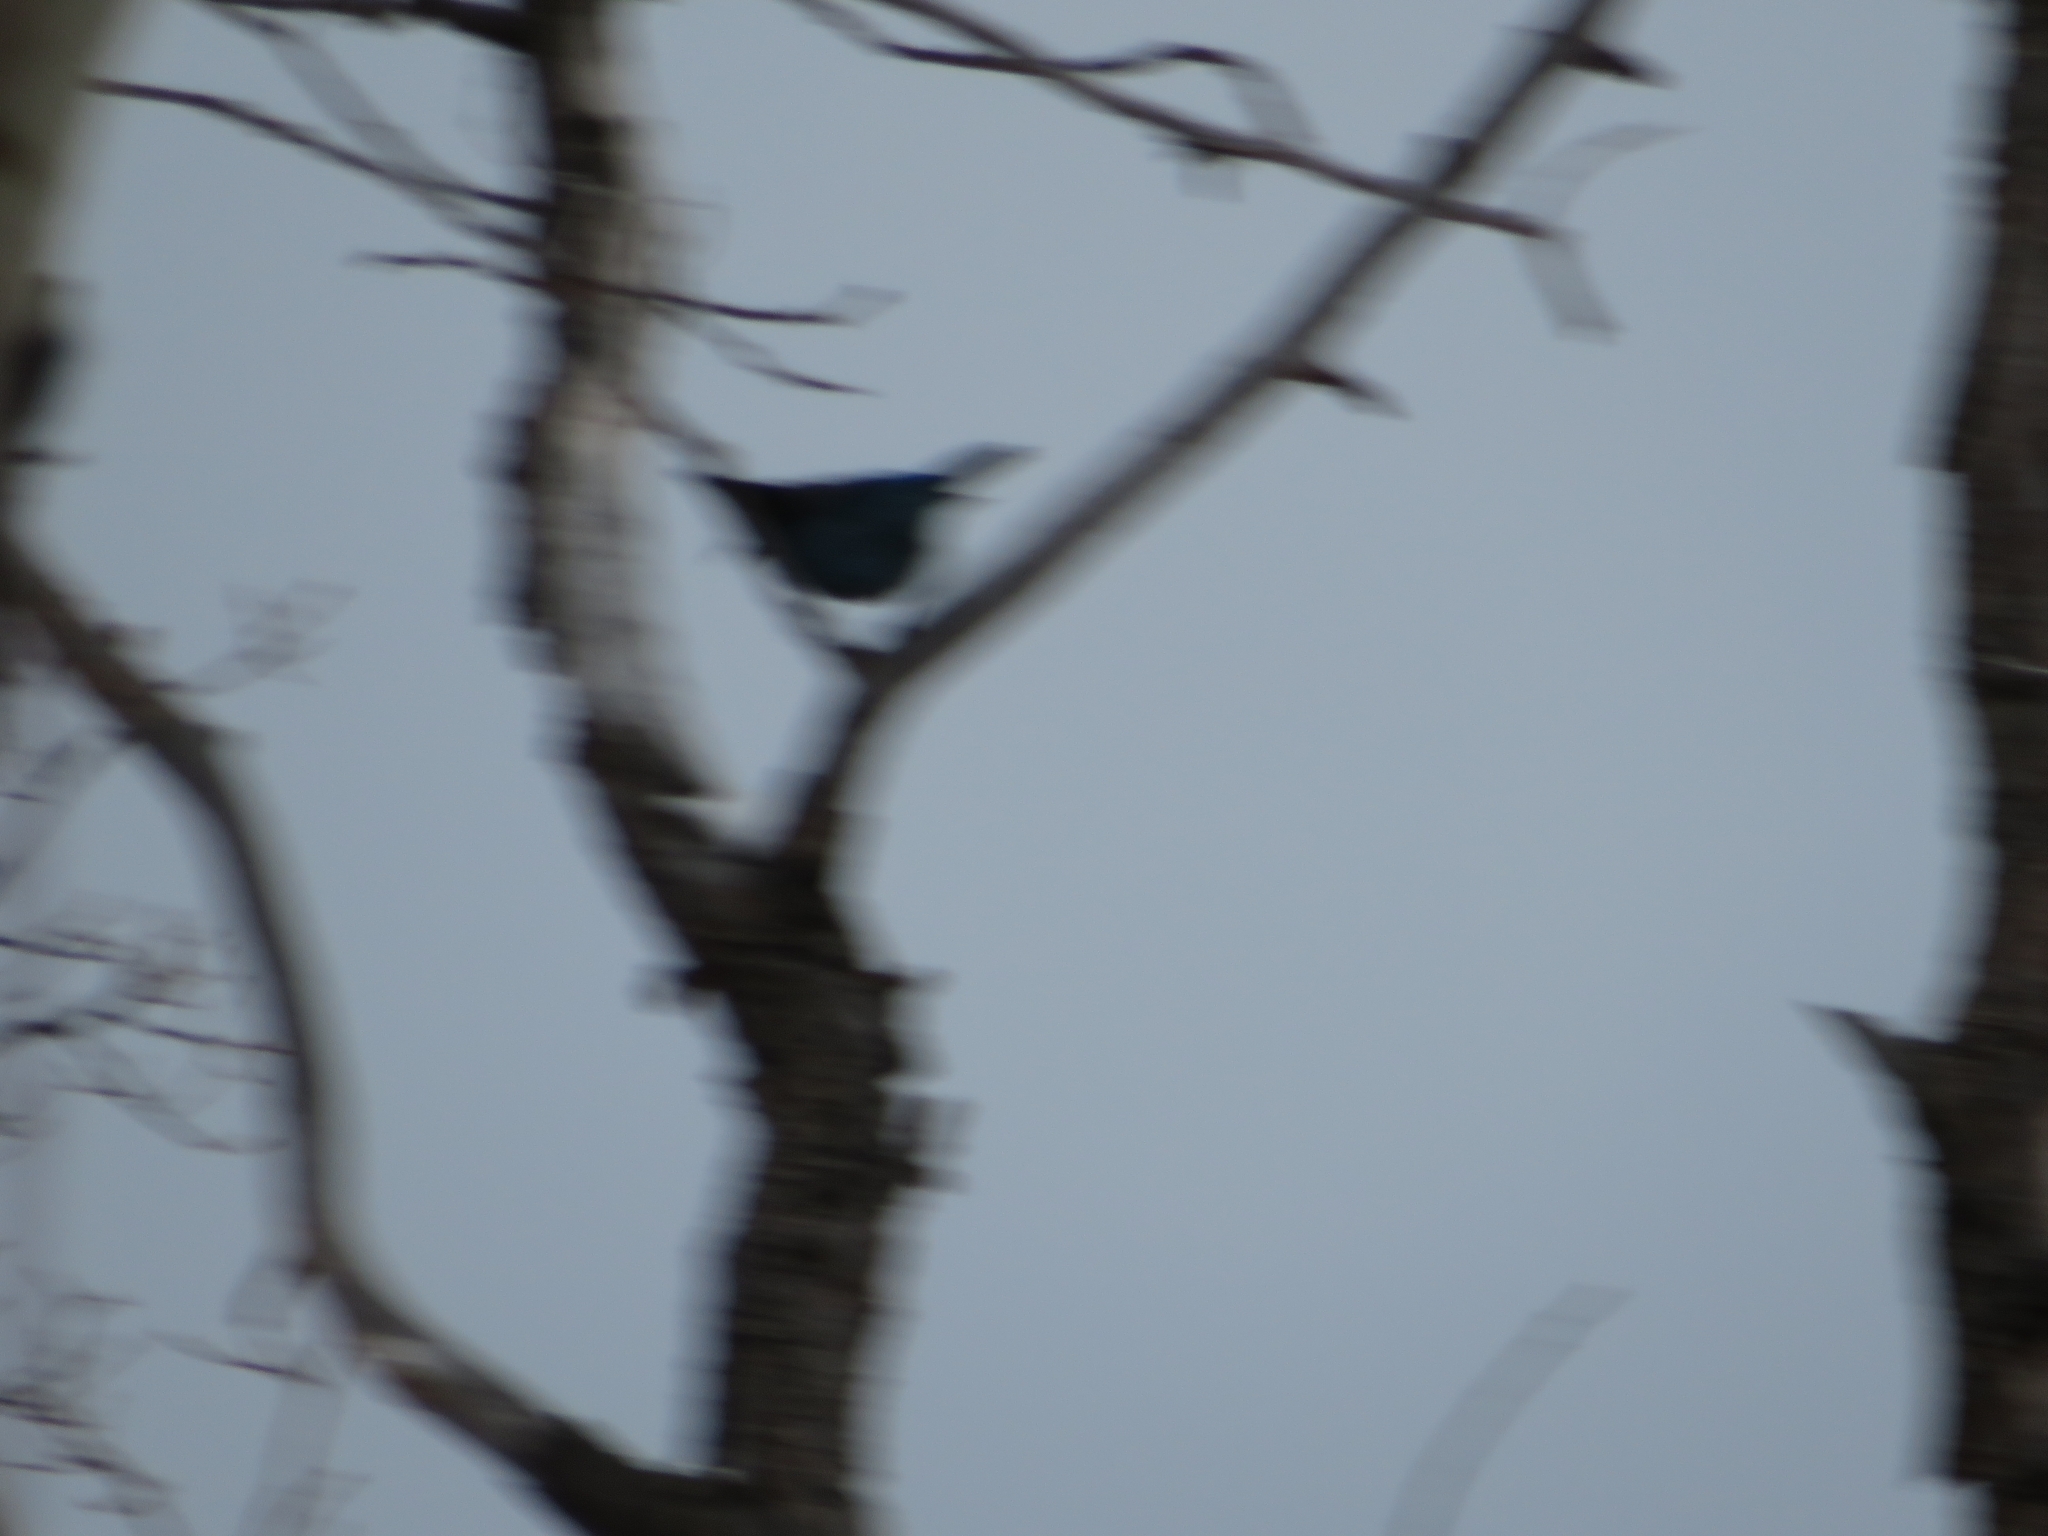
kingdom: Animalia
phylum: Chordata
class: Aves
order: Passeriformes
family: Corvidae
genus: Cyanocitta
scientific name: Cyanocitta stelleri
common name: Steller's jay
